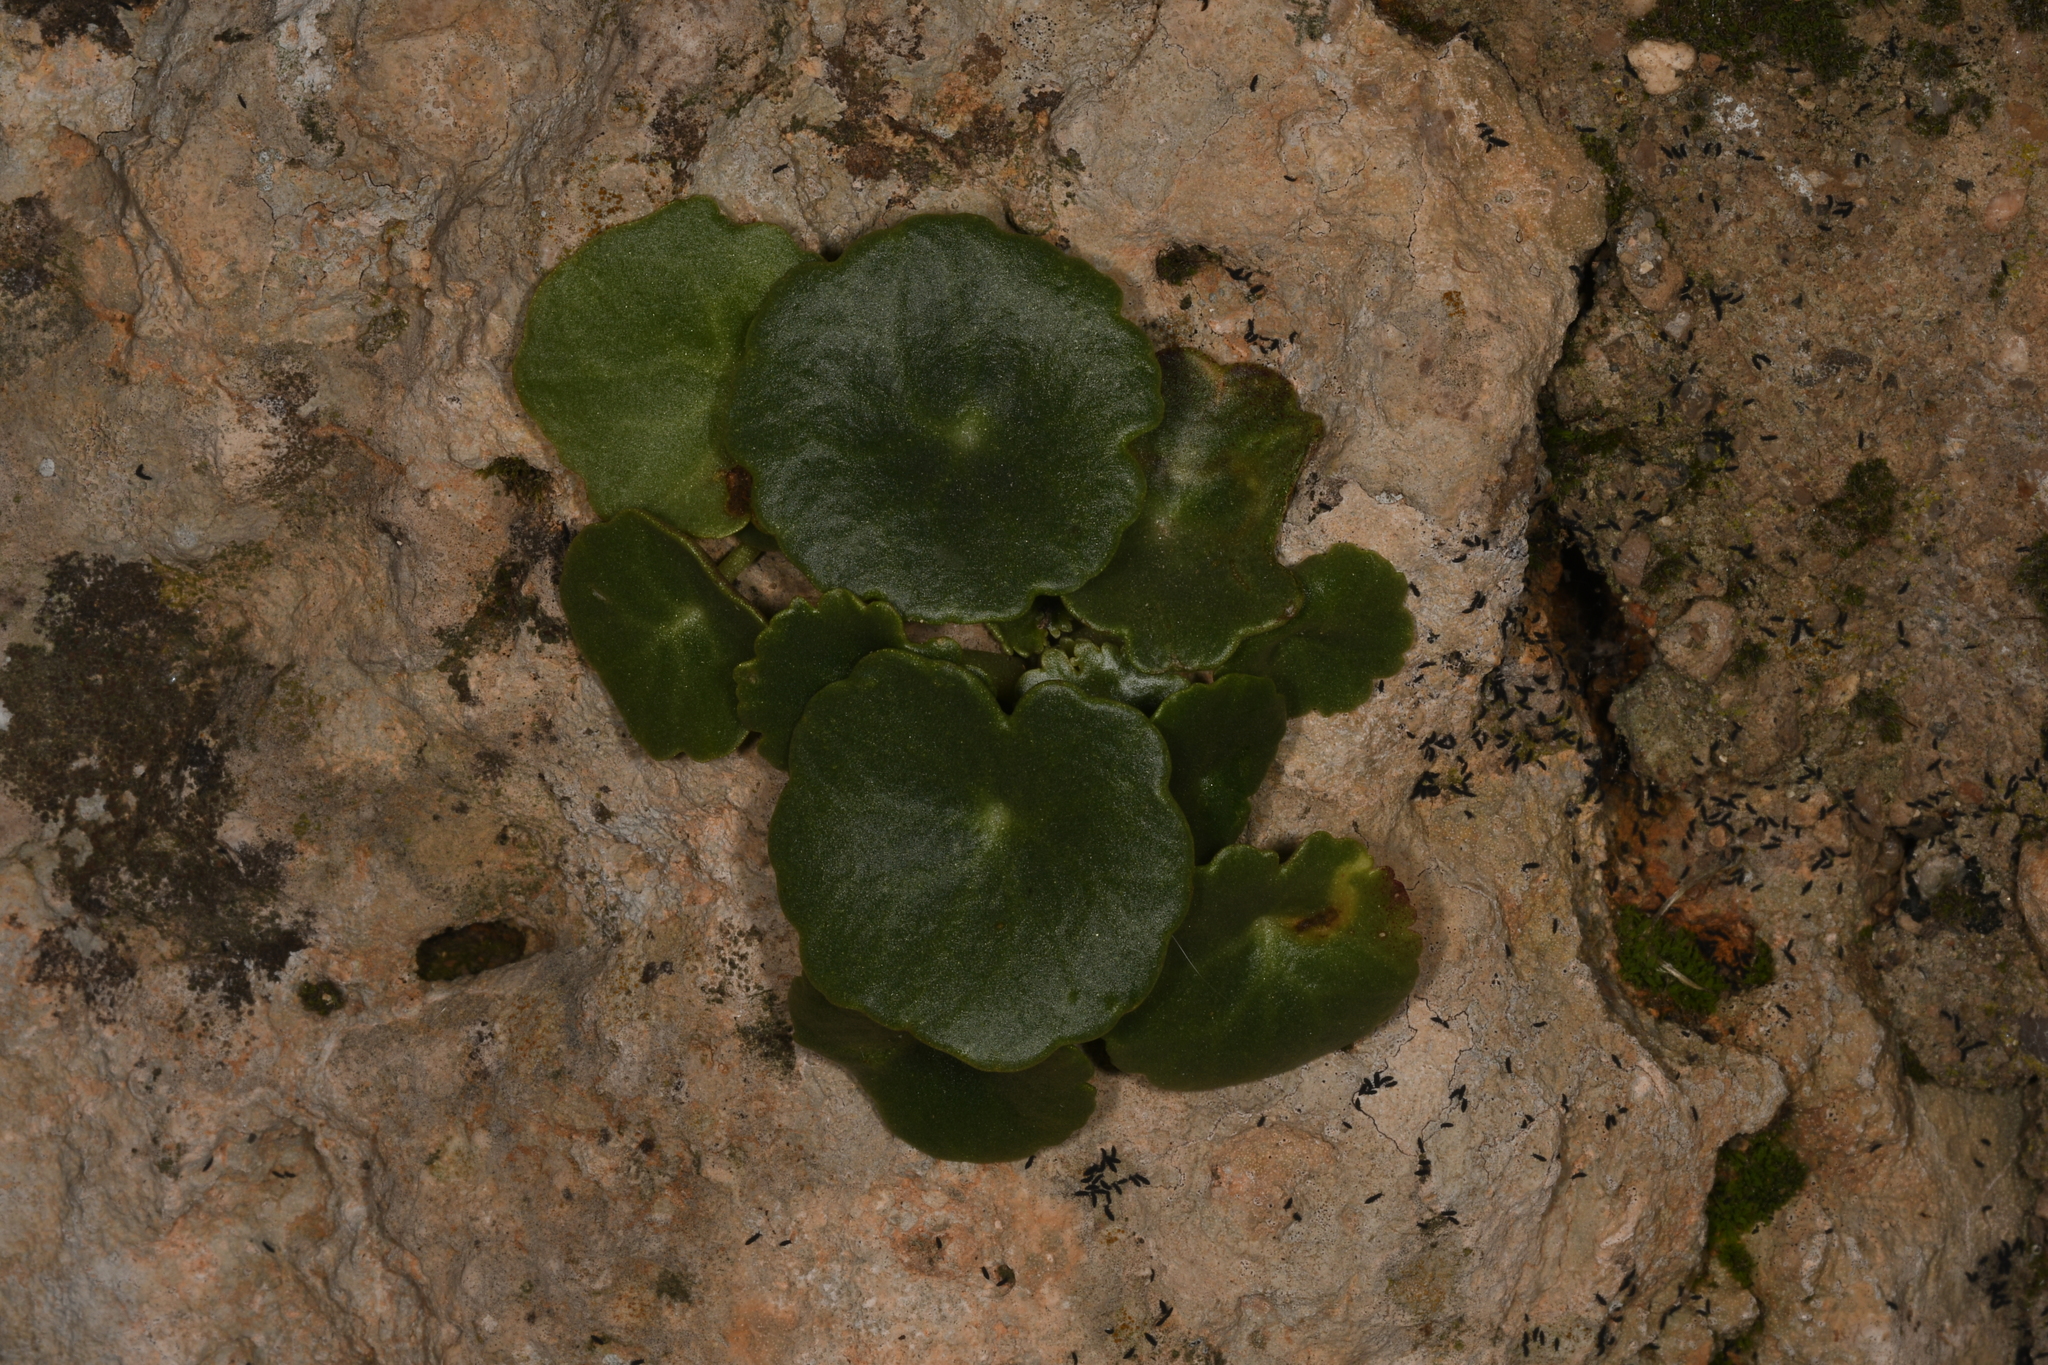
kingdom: Plantae
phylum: Tracheophyta
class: Magnoliopsida
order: Saxifragales
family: Crassulaceae
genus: Umbilicus
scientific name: Umbilicus rupestris
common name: Navelwort
